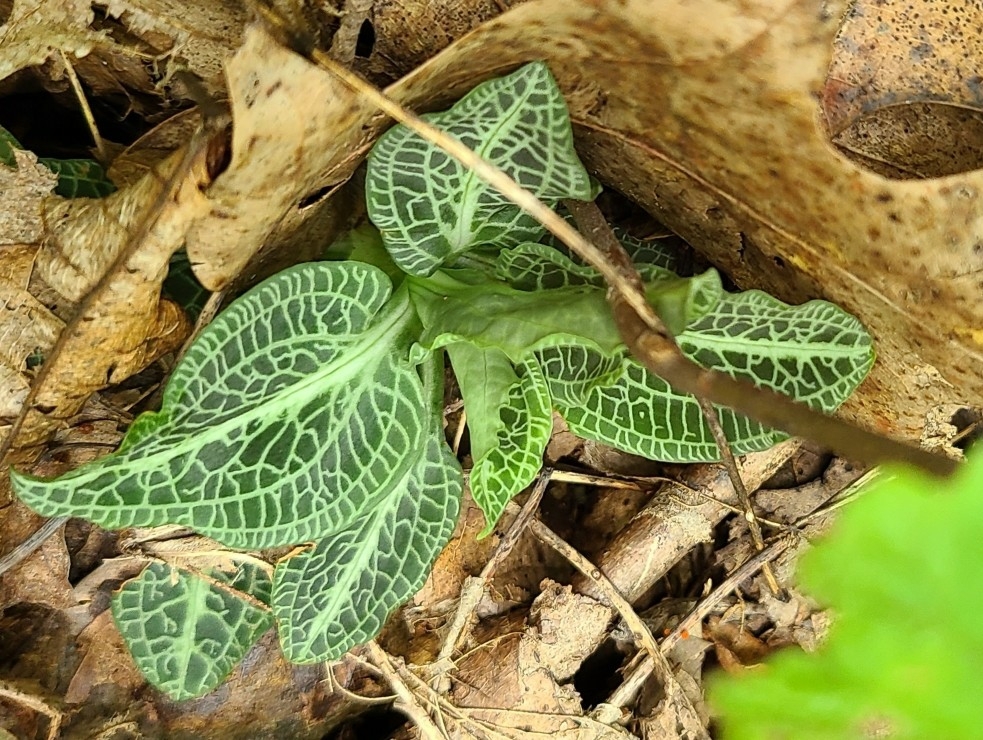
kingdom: Plantae
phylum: Tracheophyta
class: Liliopsida
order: Asparagales
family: Orchidaceae
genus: Goodyera
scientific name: Goodyera pubescens
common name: Downy rattlesnake-plantain
